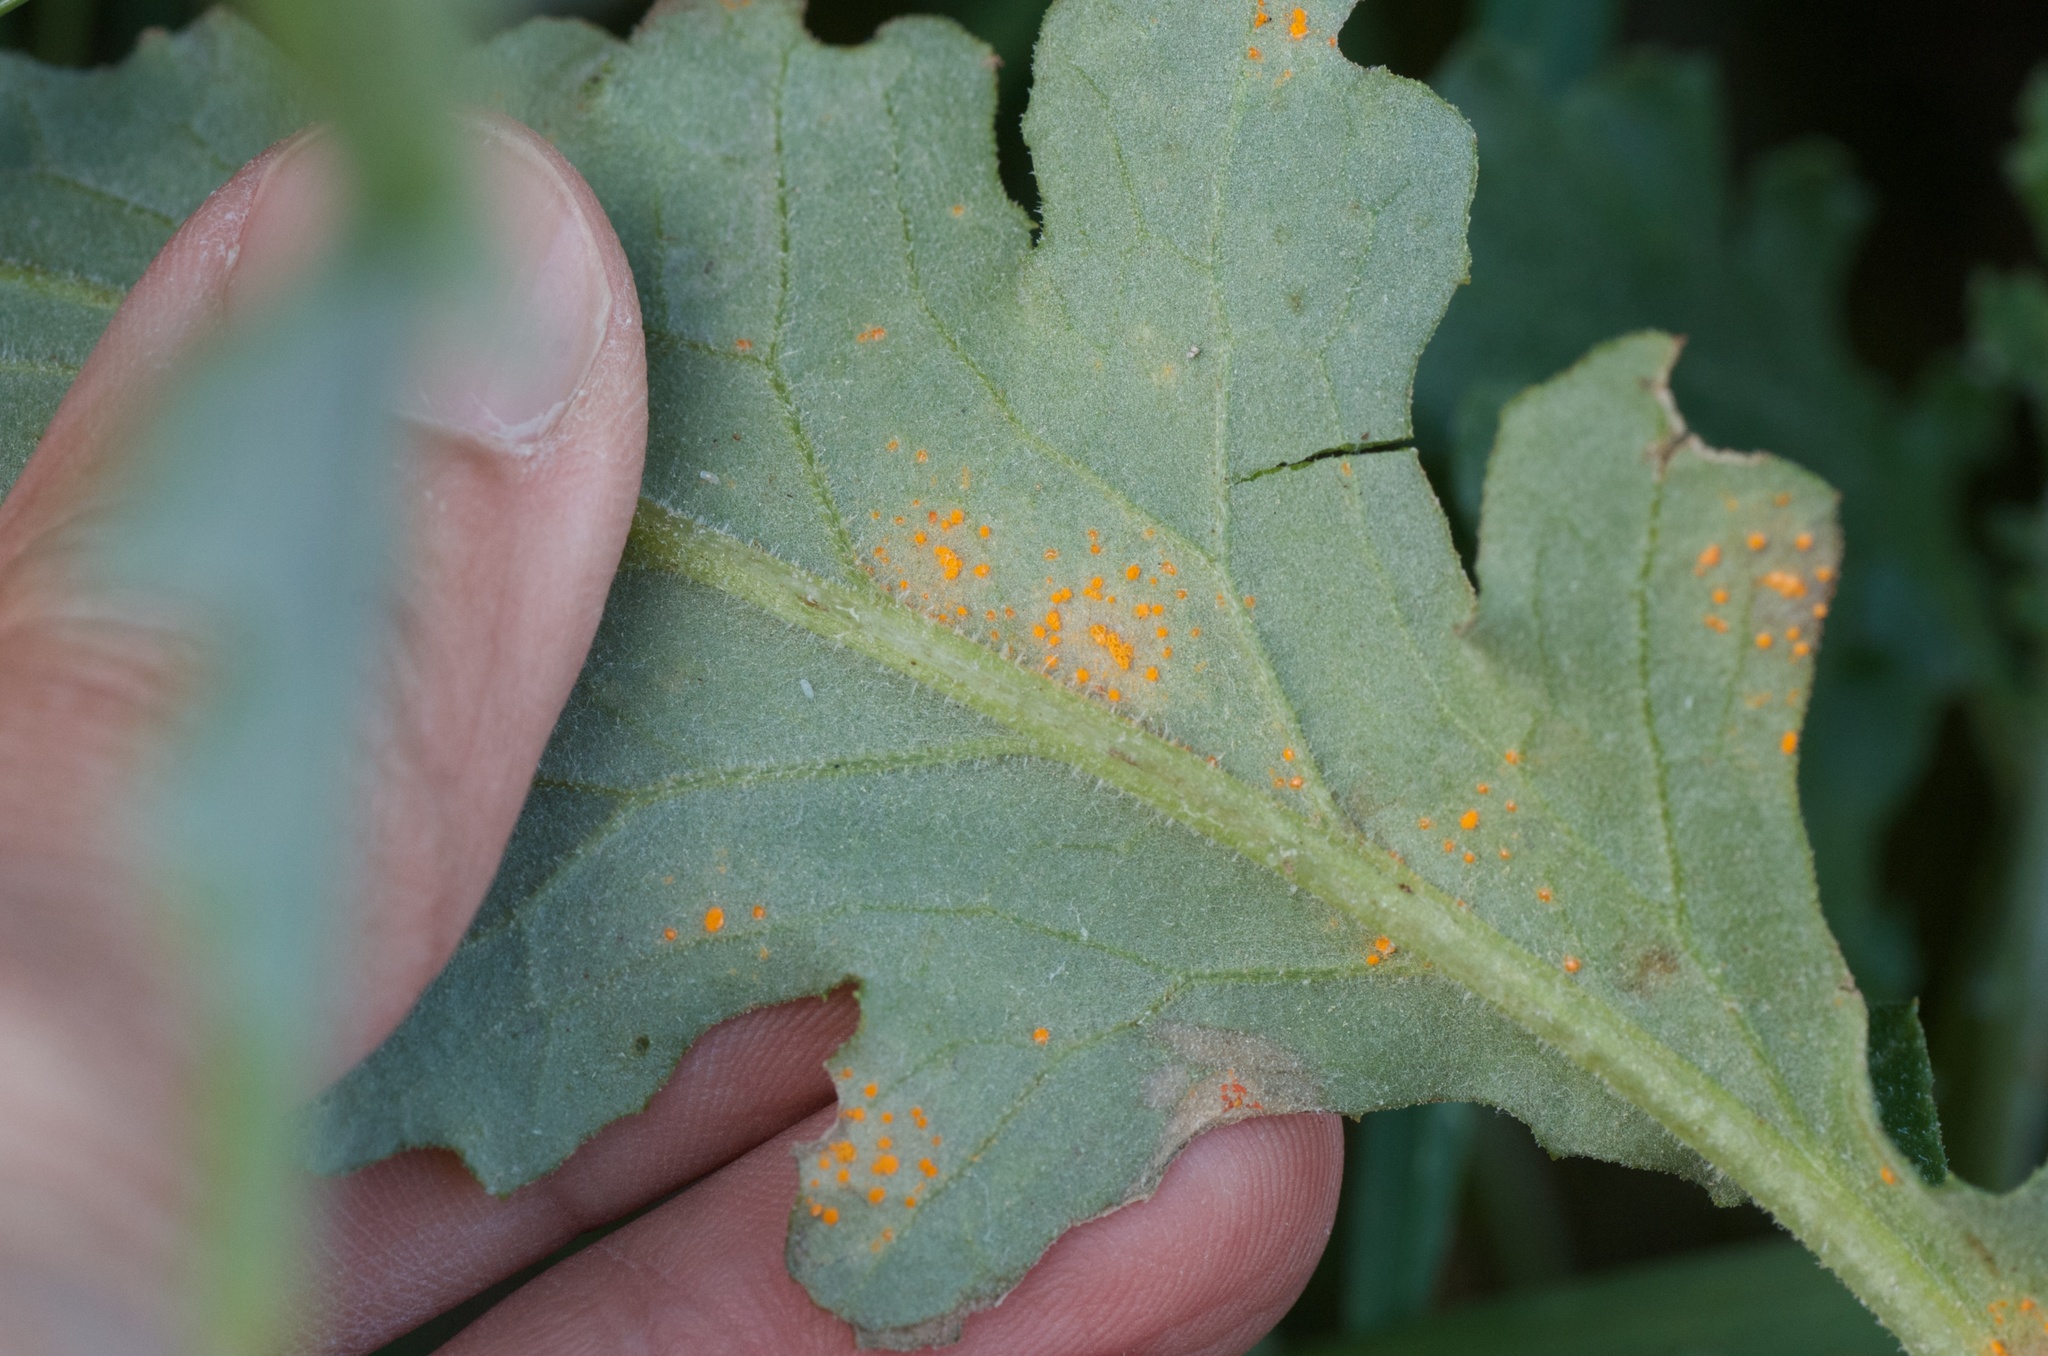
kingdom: Fungi
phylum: Basidiomycota
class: Pucciniomycetes
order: Pucciniales
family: Coleosporiaceae
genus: Coleosporium
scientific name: Coleosporium tussilaginis
